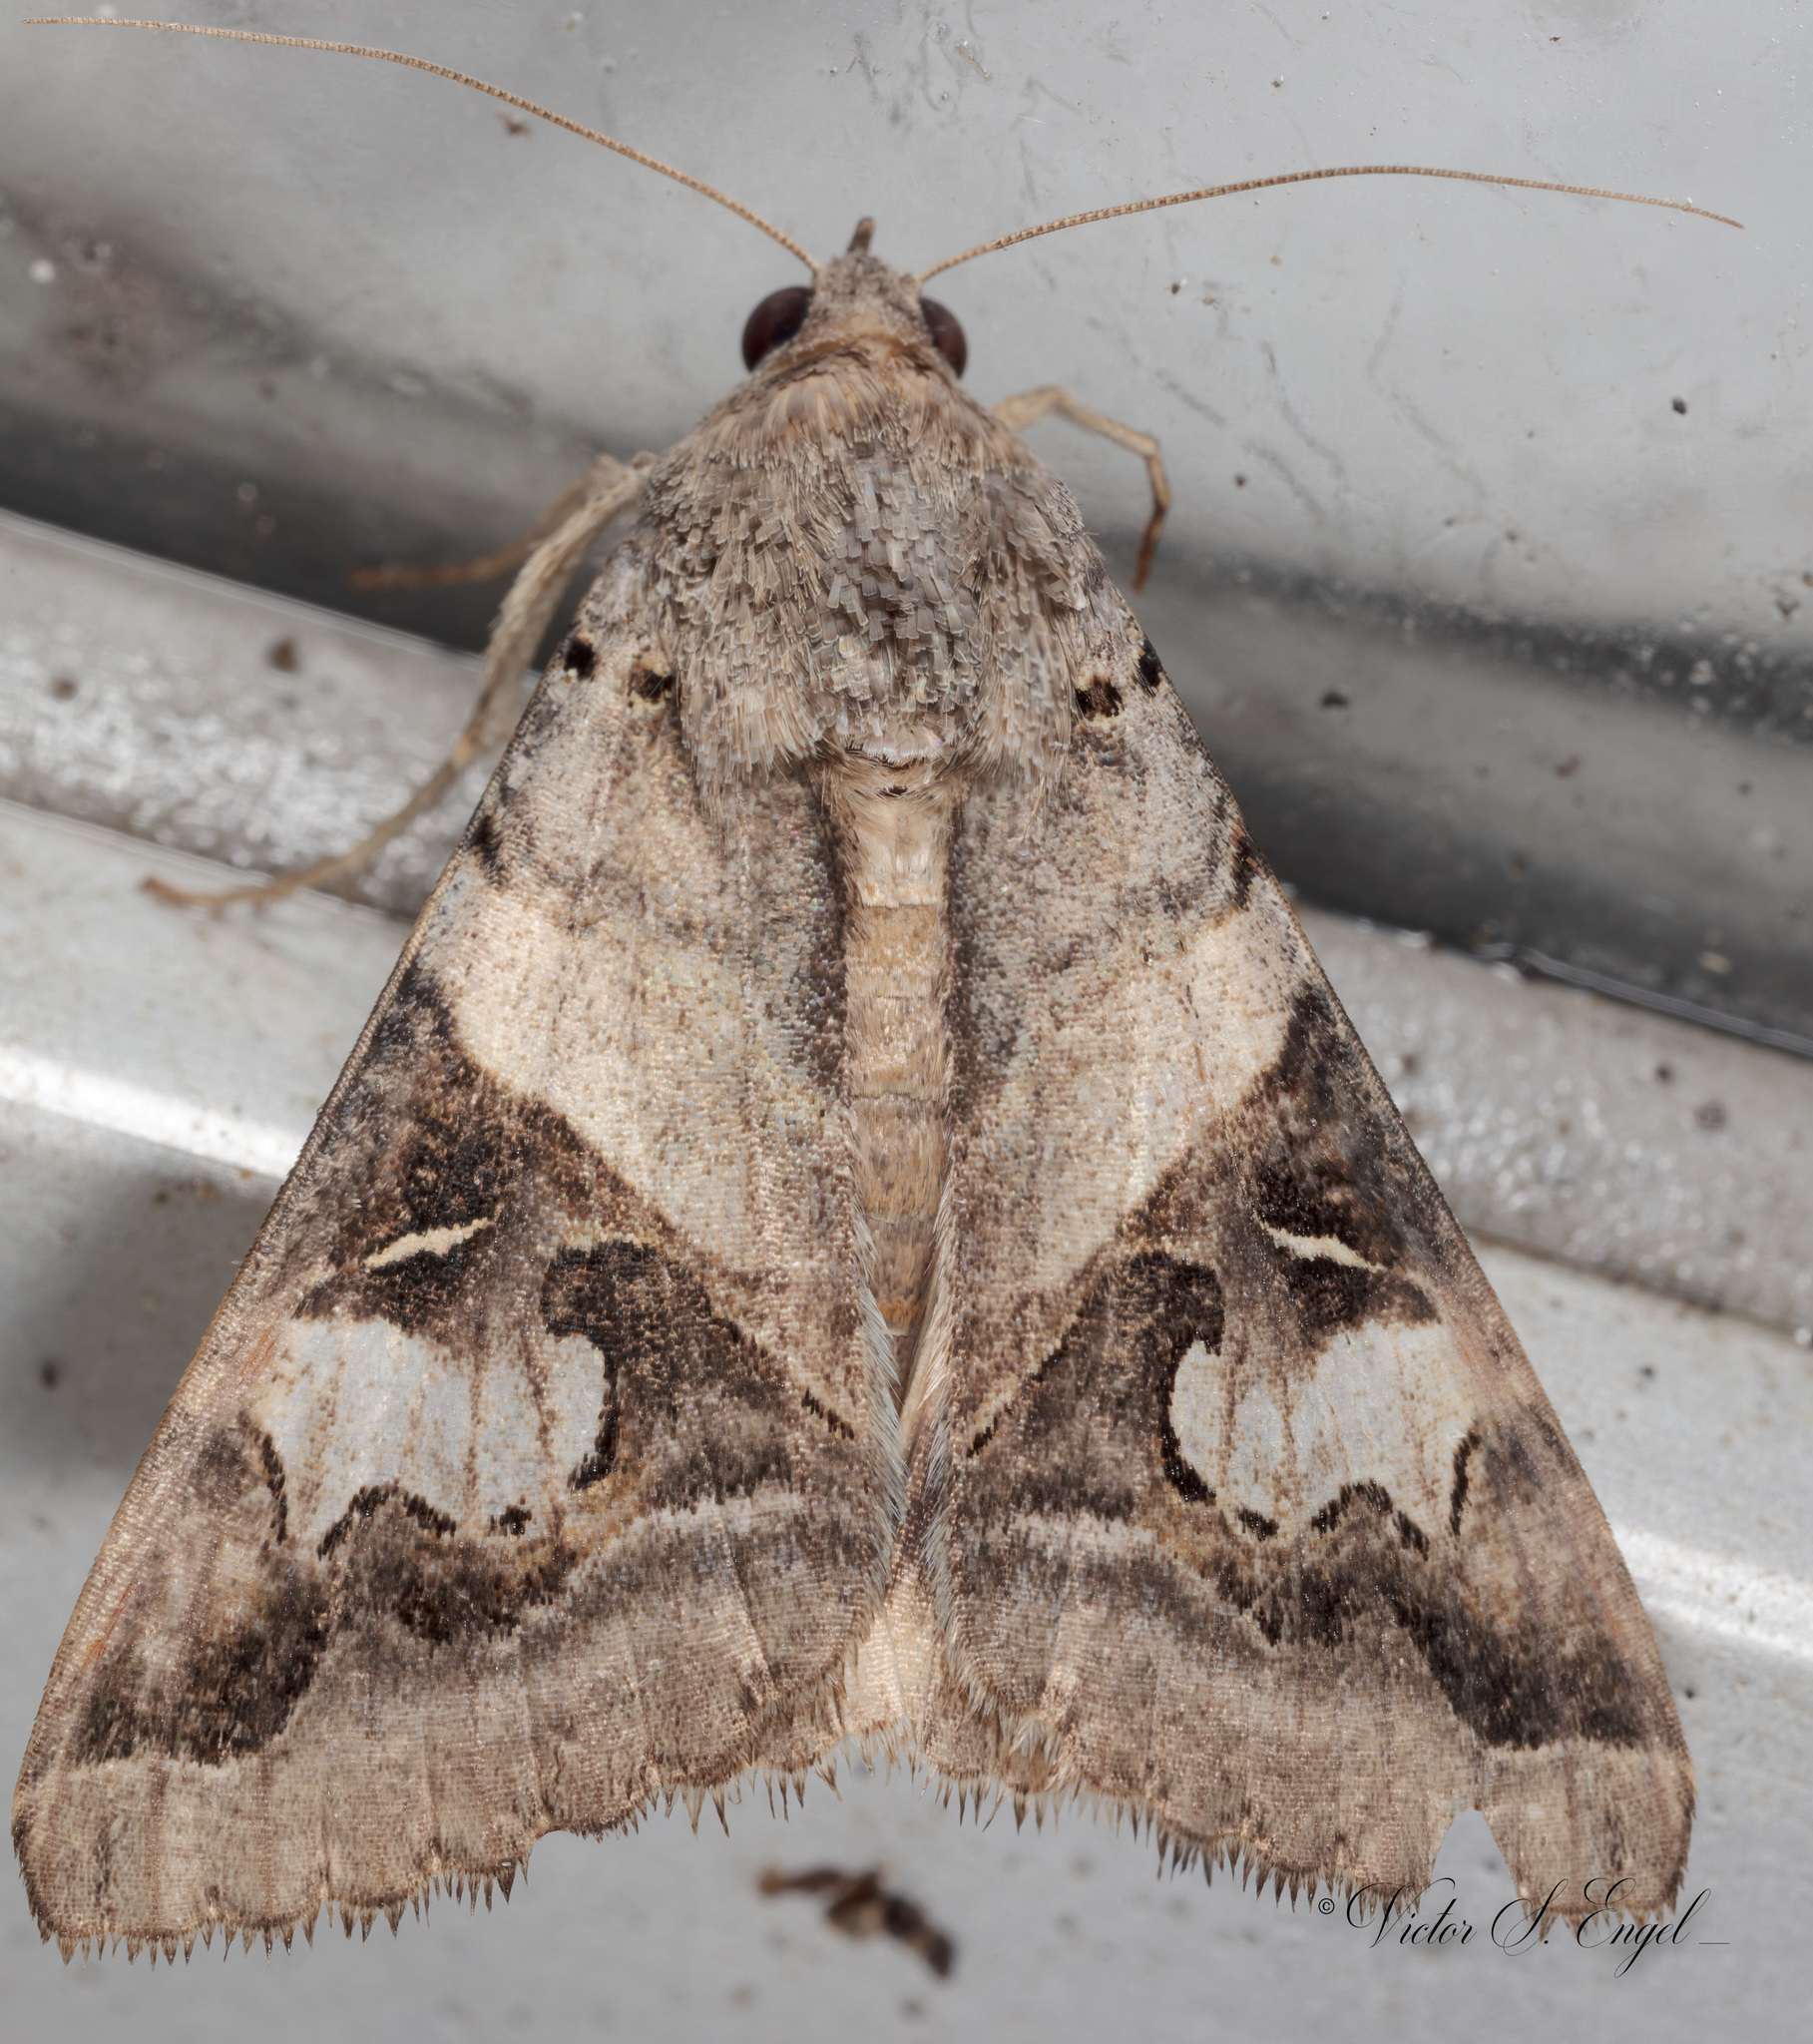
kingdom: Animalia
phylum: Arthropoda
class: Insecta
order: Lepidoptera
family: Erebidae
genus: Melipotis
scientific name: Melipotis indomita
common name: Moth
